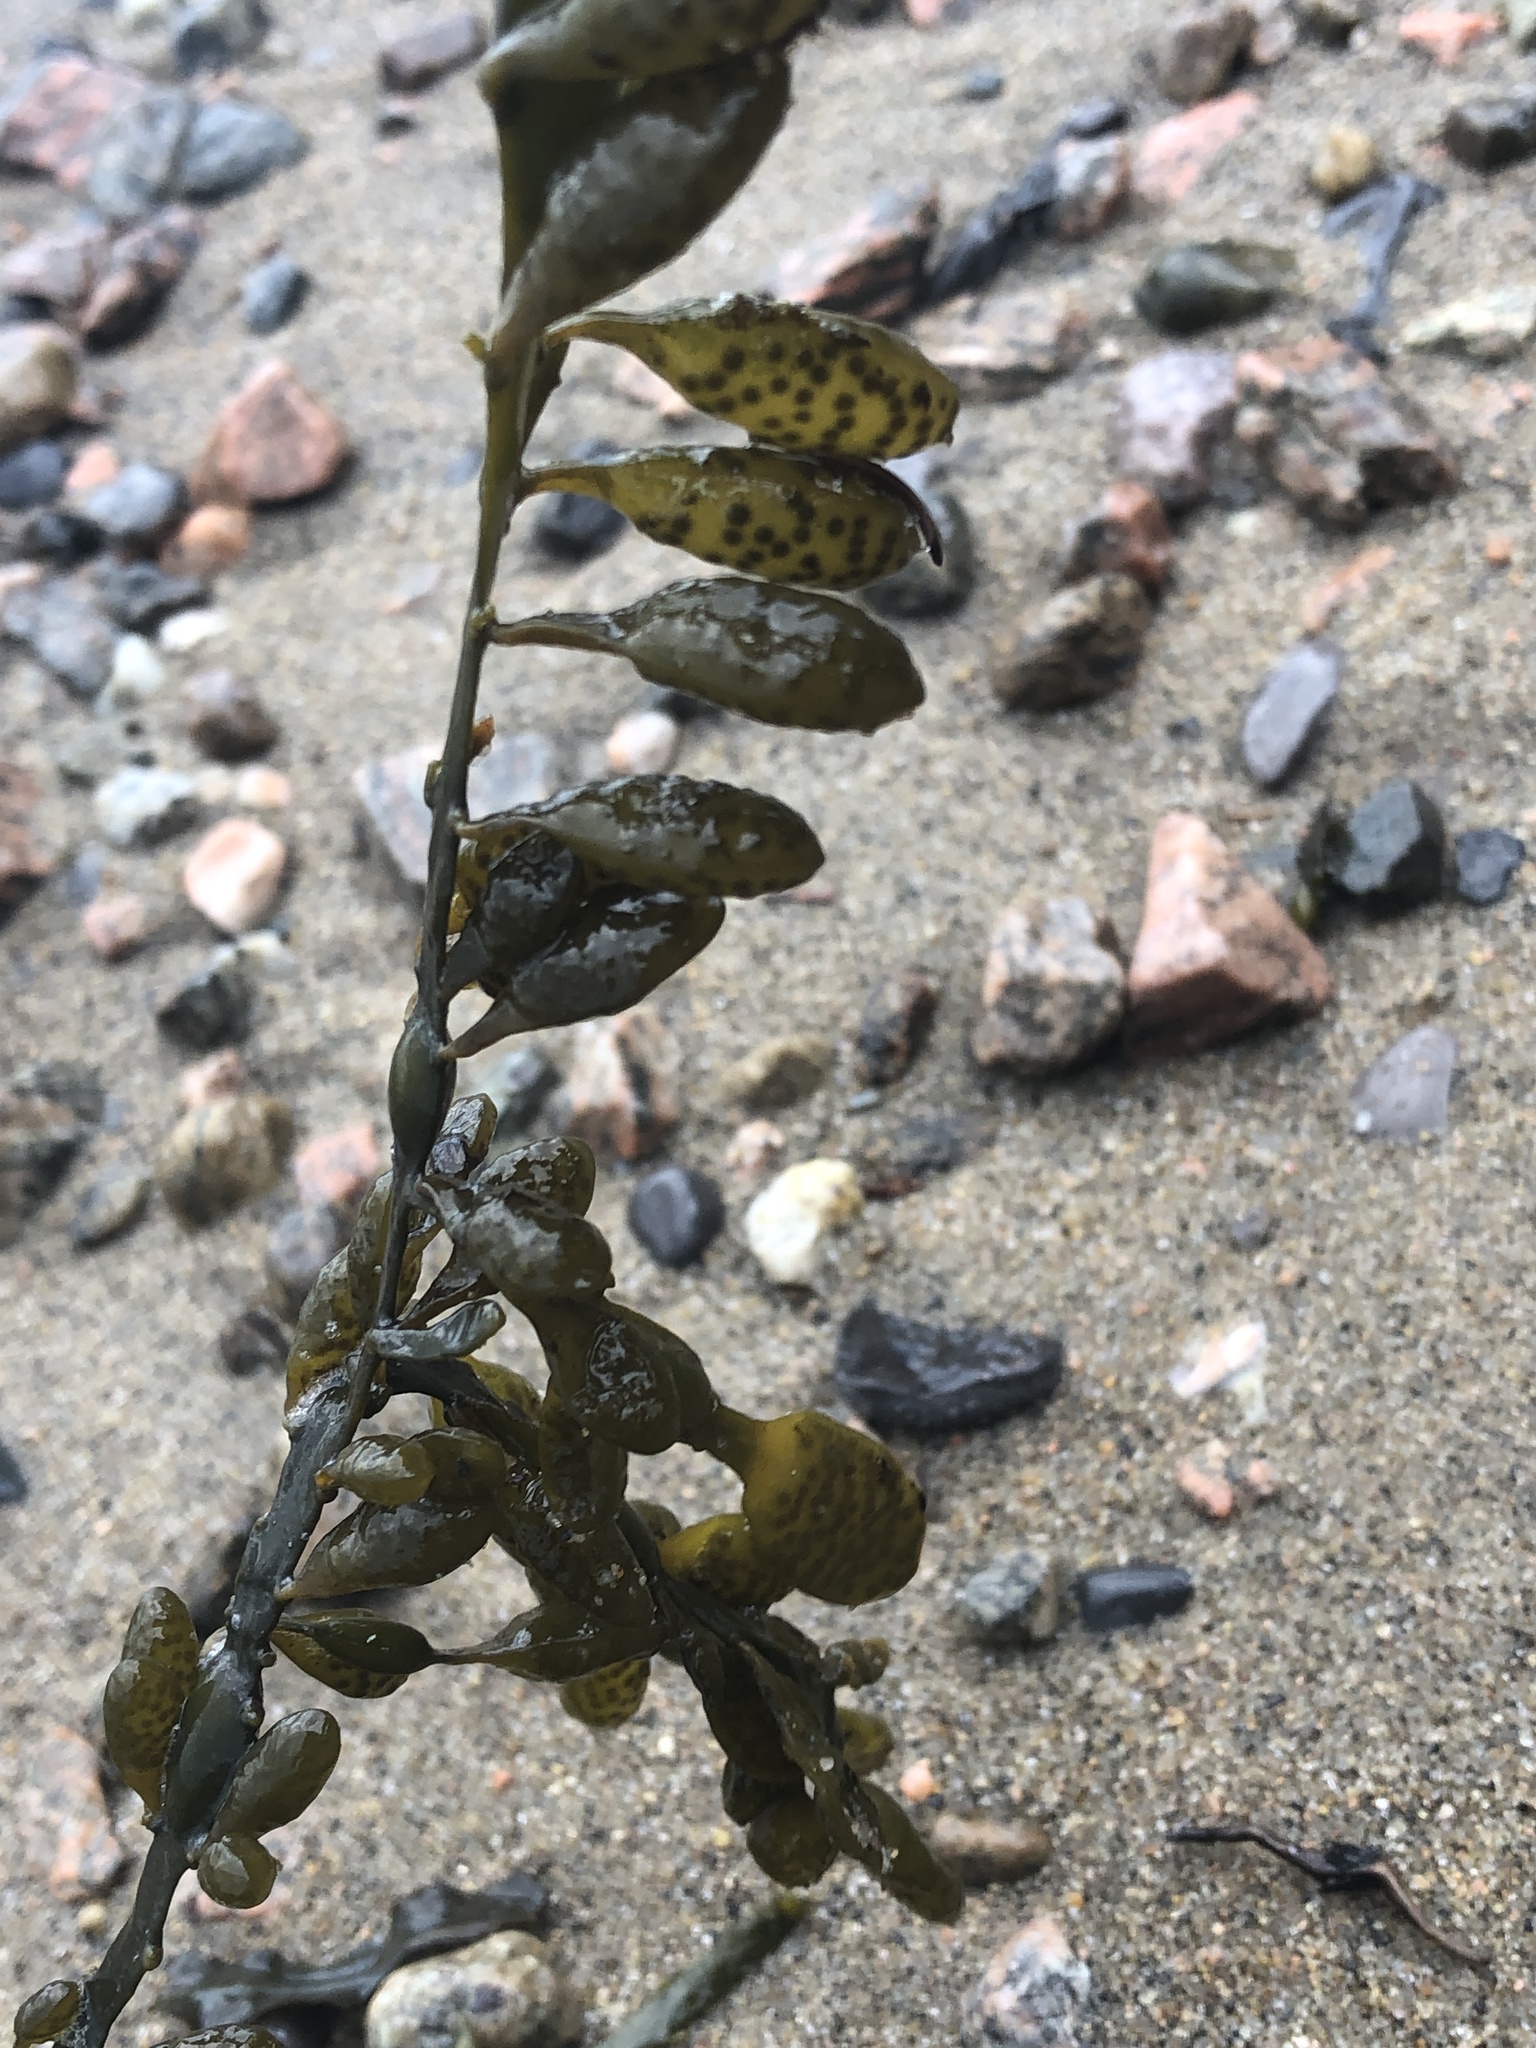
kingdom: Chromista
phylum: Ochrophyta
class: Phaeophyceae
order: Fucales
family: Fucaceae
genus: Ascophyllum
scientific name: Ascophyllum nodosum
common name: Knotted wrack
